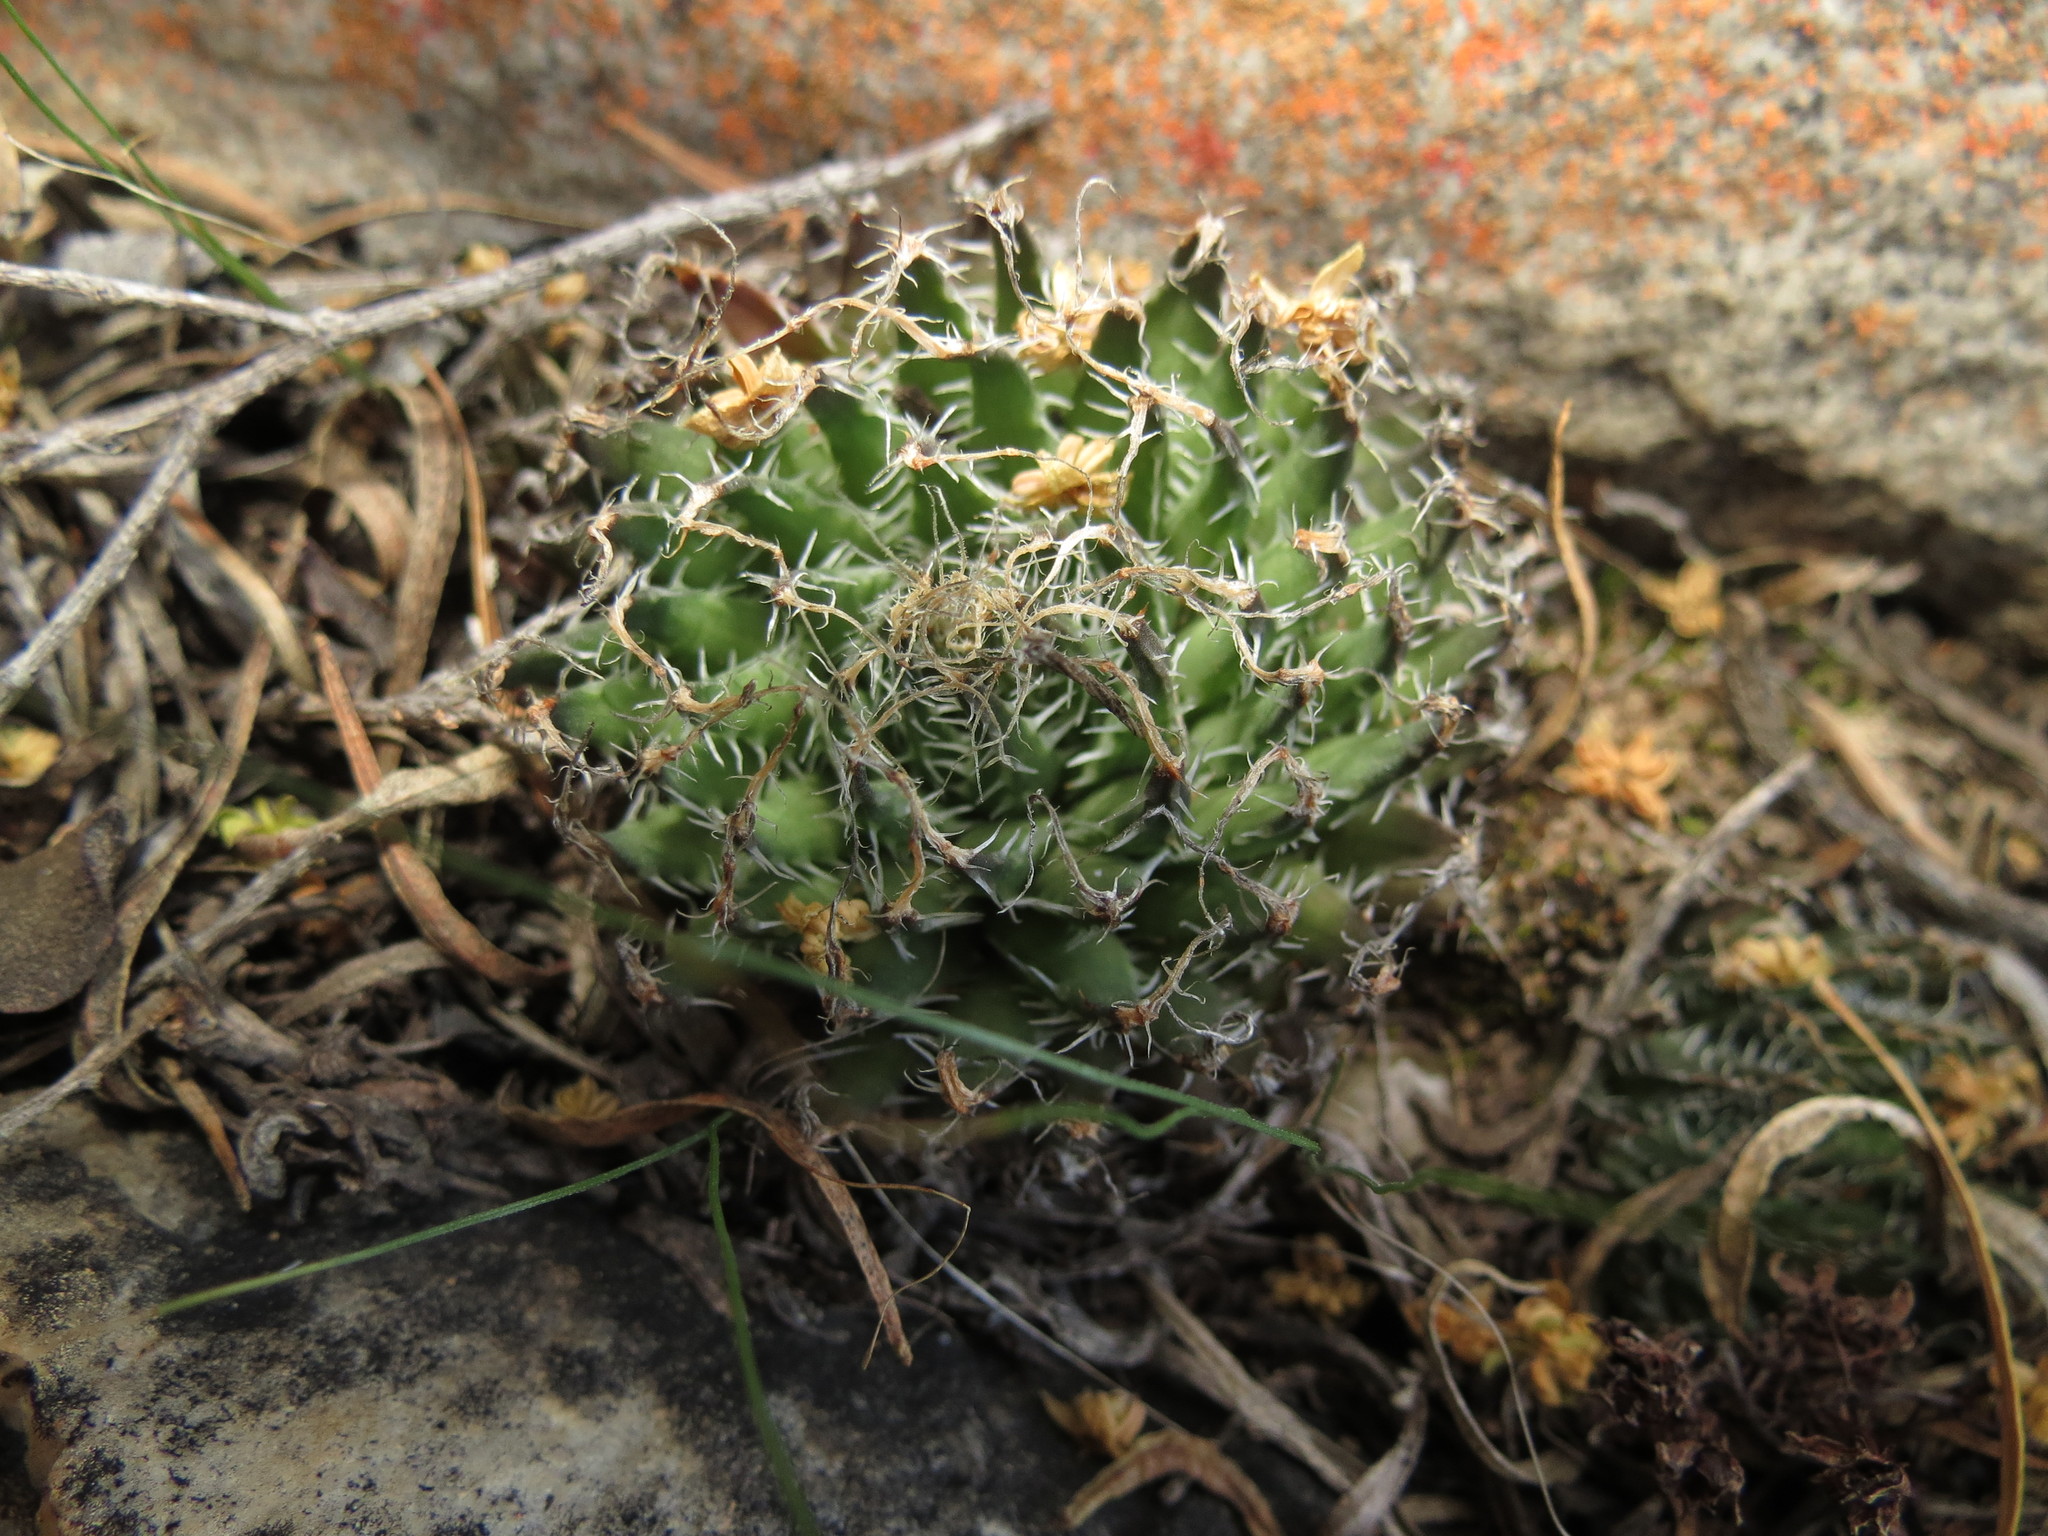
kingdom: Plantae
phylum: Tracheophyta
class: Liliopsida
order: Asparagales
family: Asphodelaceae
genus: Haworthia
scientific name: Haworthia arachnoidea
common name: Cobweb-aloe
